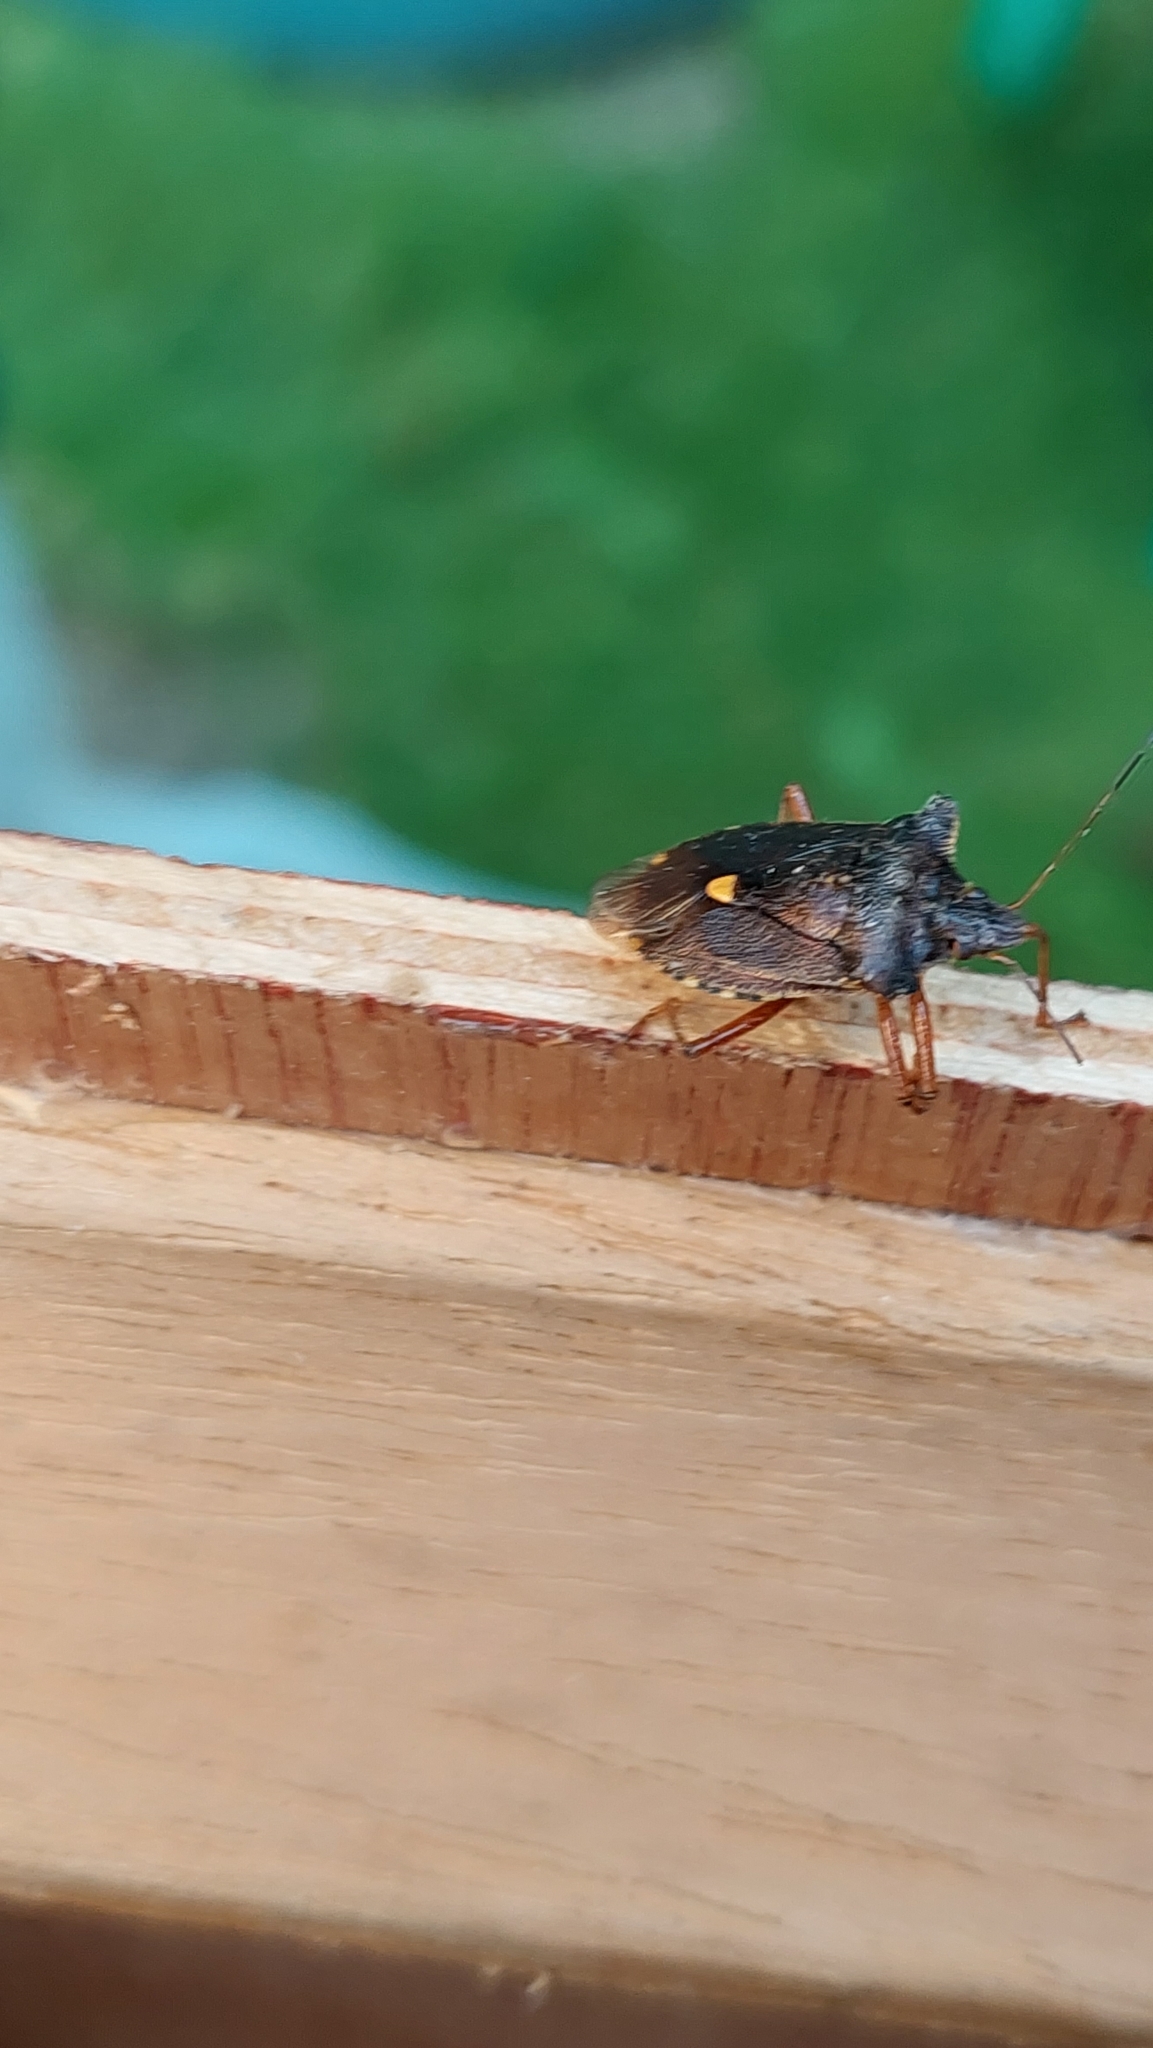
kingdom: Animalia
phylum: Arthropoda
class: Insecta
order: Hemiptera
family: Pentatomidae
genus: Pentatoma
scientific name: Pentatoma rufipes
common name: Forest bug
